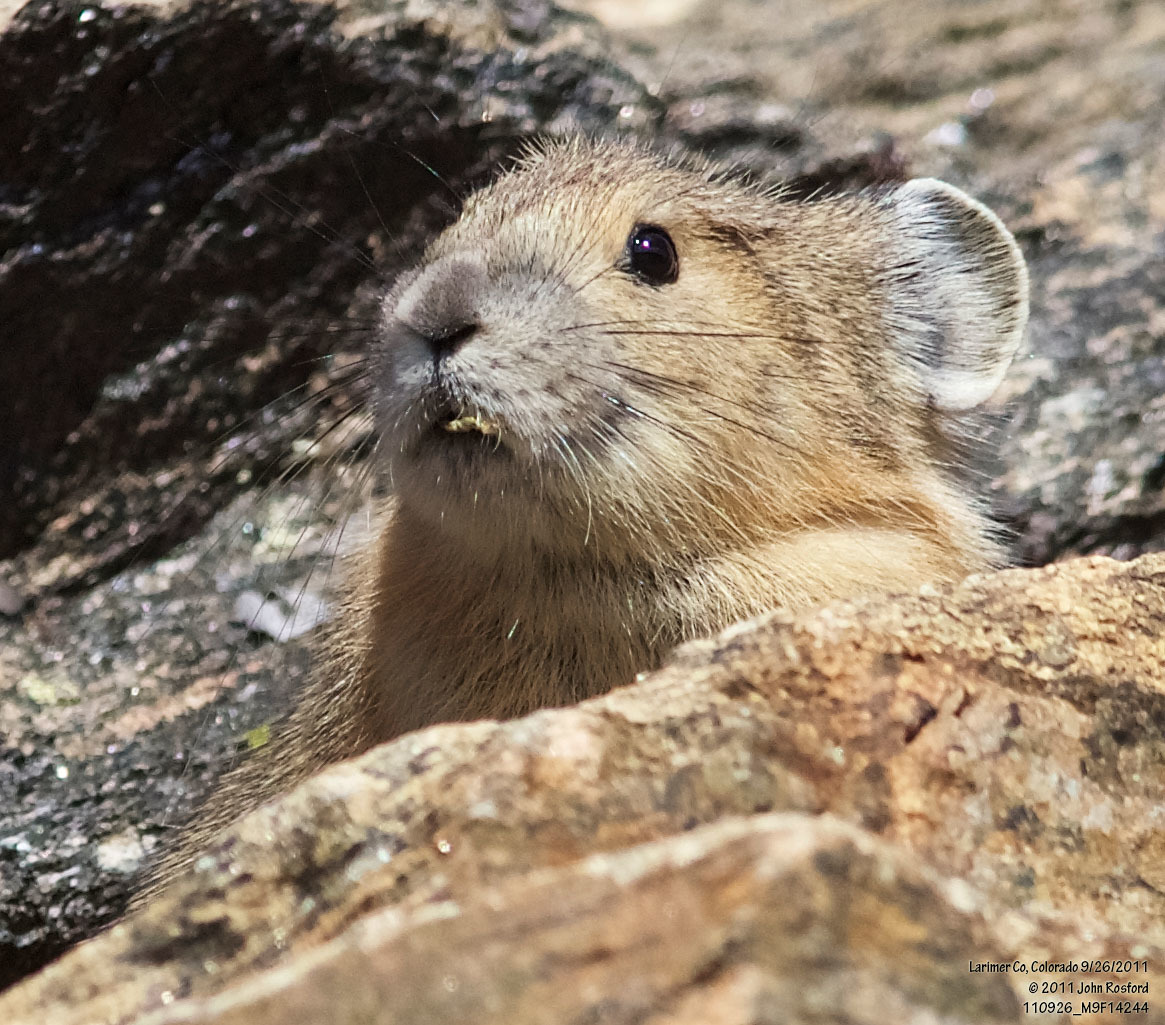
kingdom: Animalia
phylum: Chordata
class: Mammalia
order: Lagomorpha
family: Ochotonidae
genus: Ochotona
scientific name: Ochotona princeps
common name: American pika
